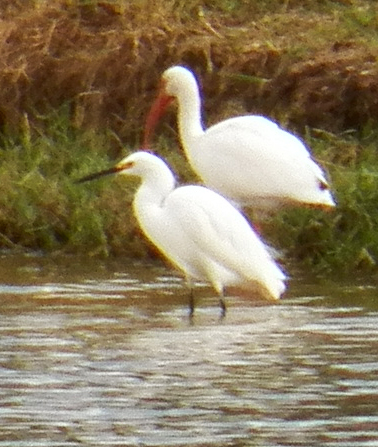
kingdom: Animalia
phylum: Chordata
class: Aves
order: Pelecaniformes
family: Ardeidae
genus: Egretta
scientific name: Egretta thula
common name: Snowy egret
